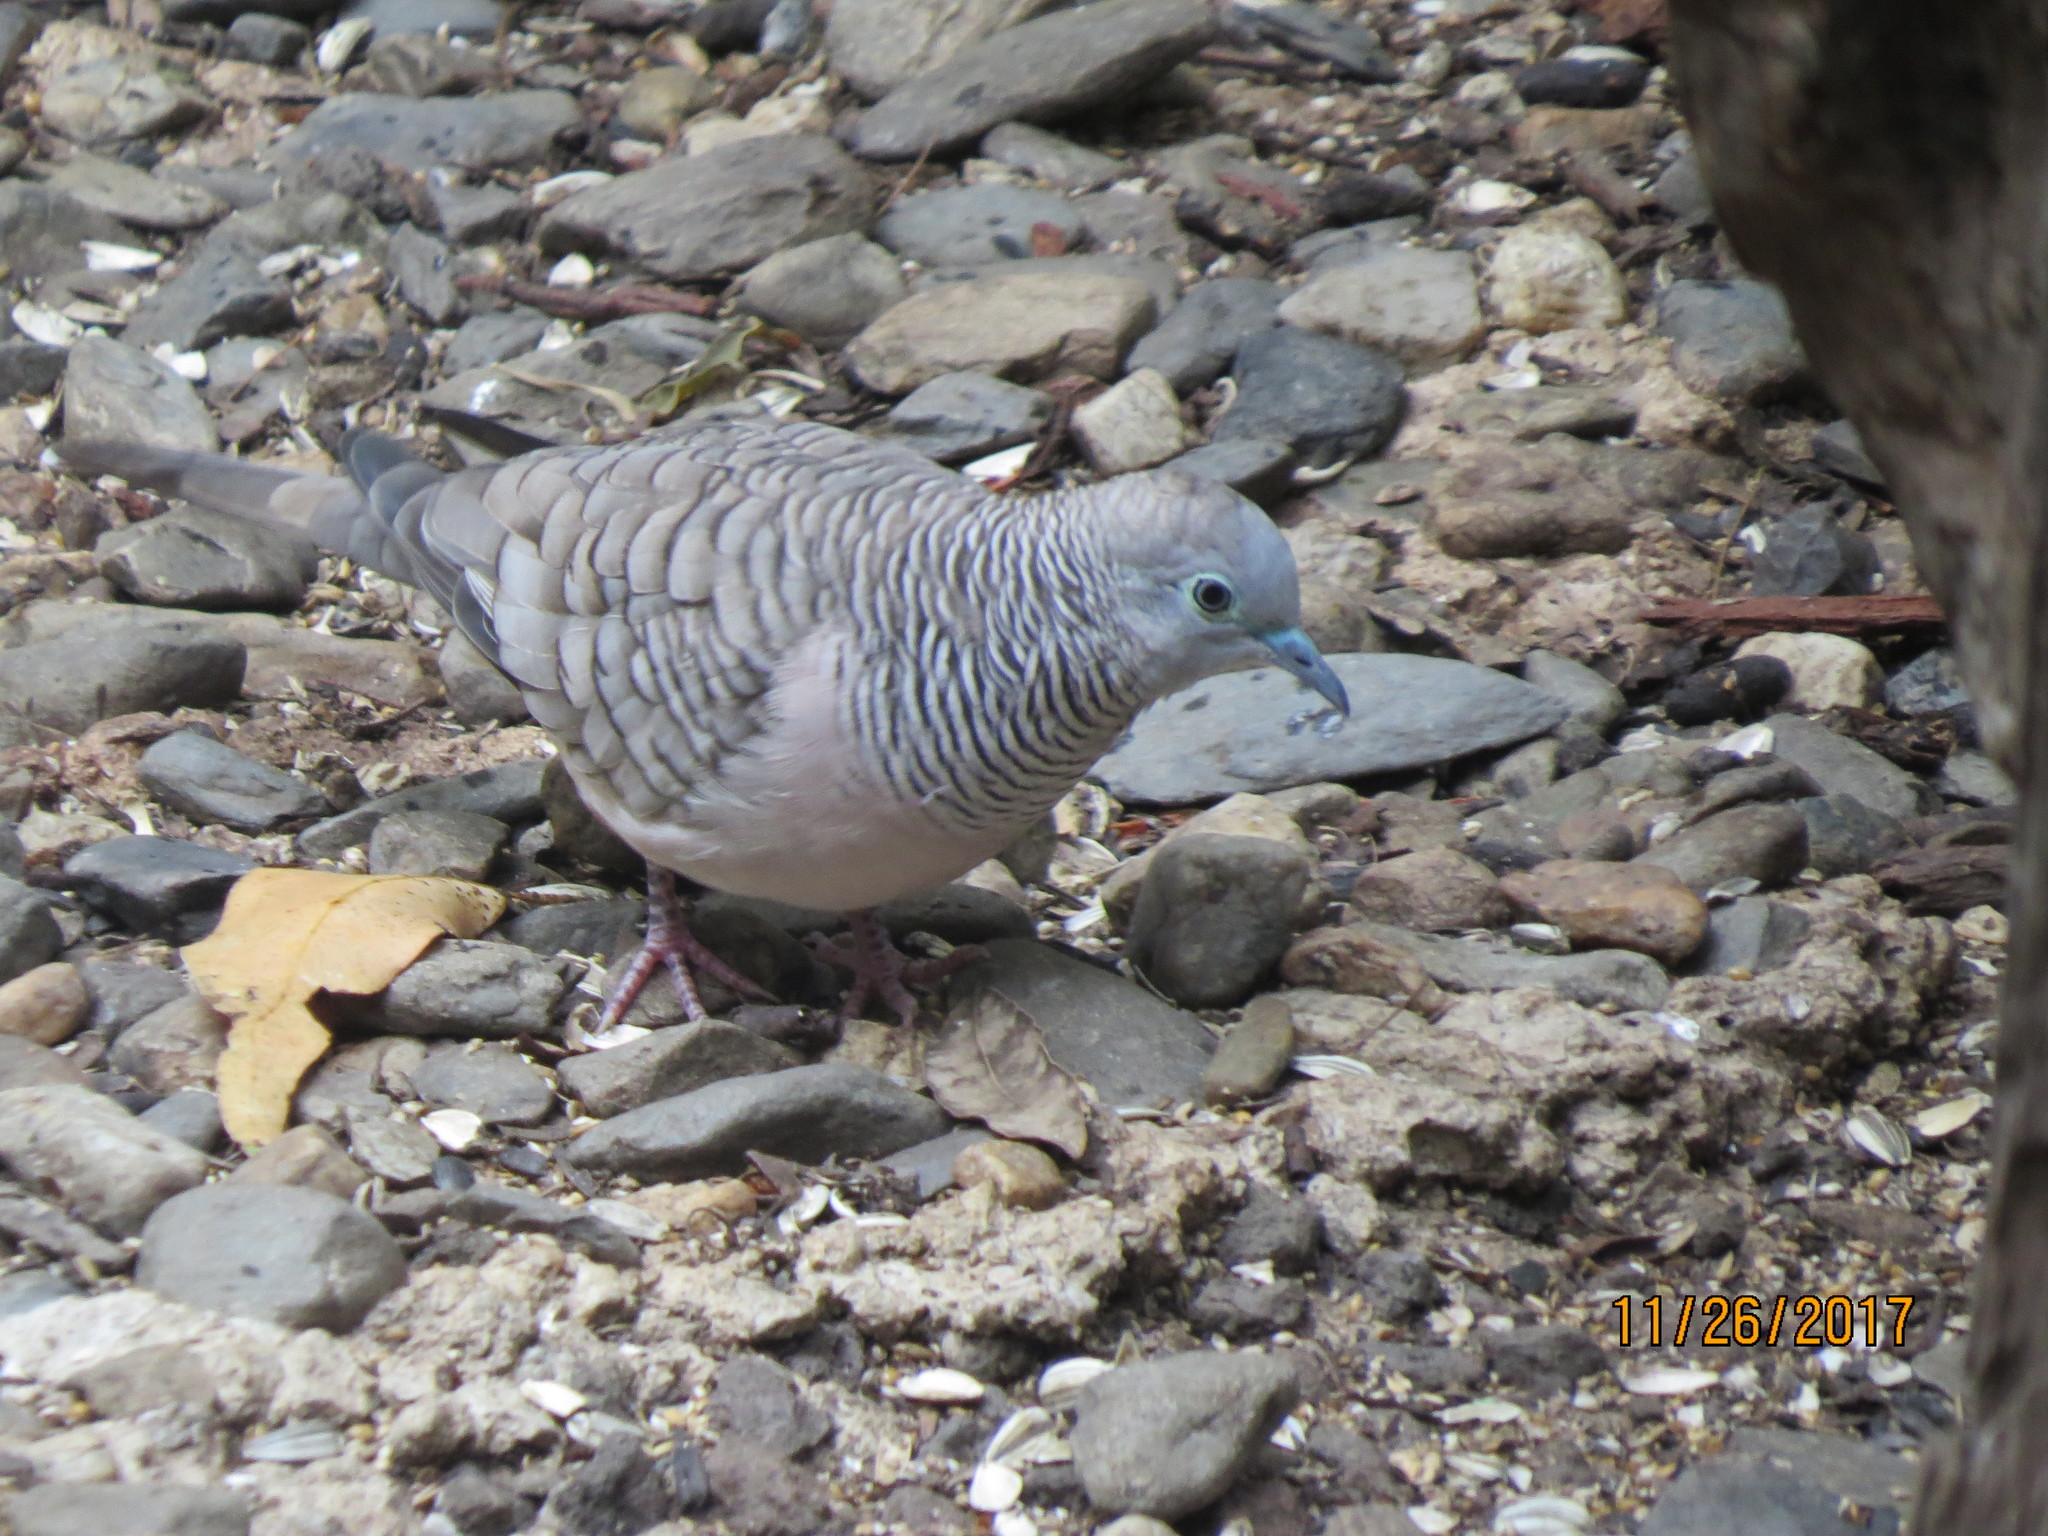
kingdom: Animalia
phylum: Chordata
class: Aves
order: Columbiformes
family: Columbidae
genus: Geopelia
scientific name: Geopelia placida
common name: Peaceful dove
